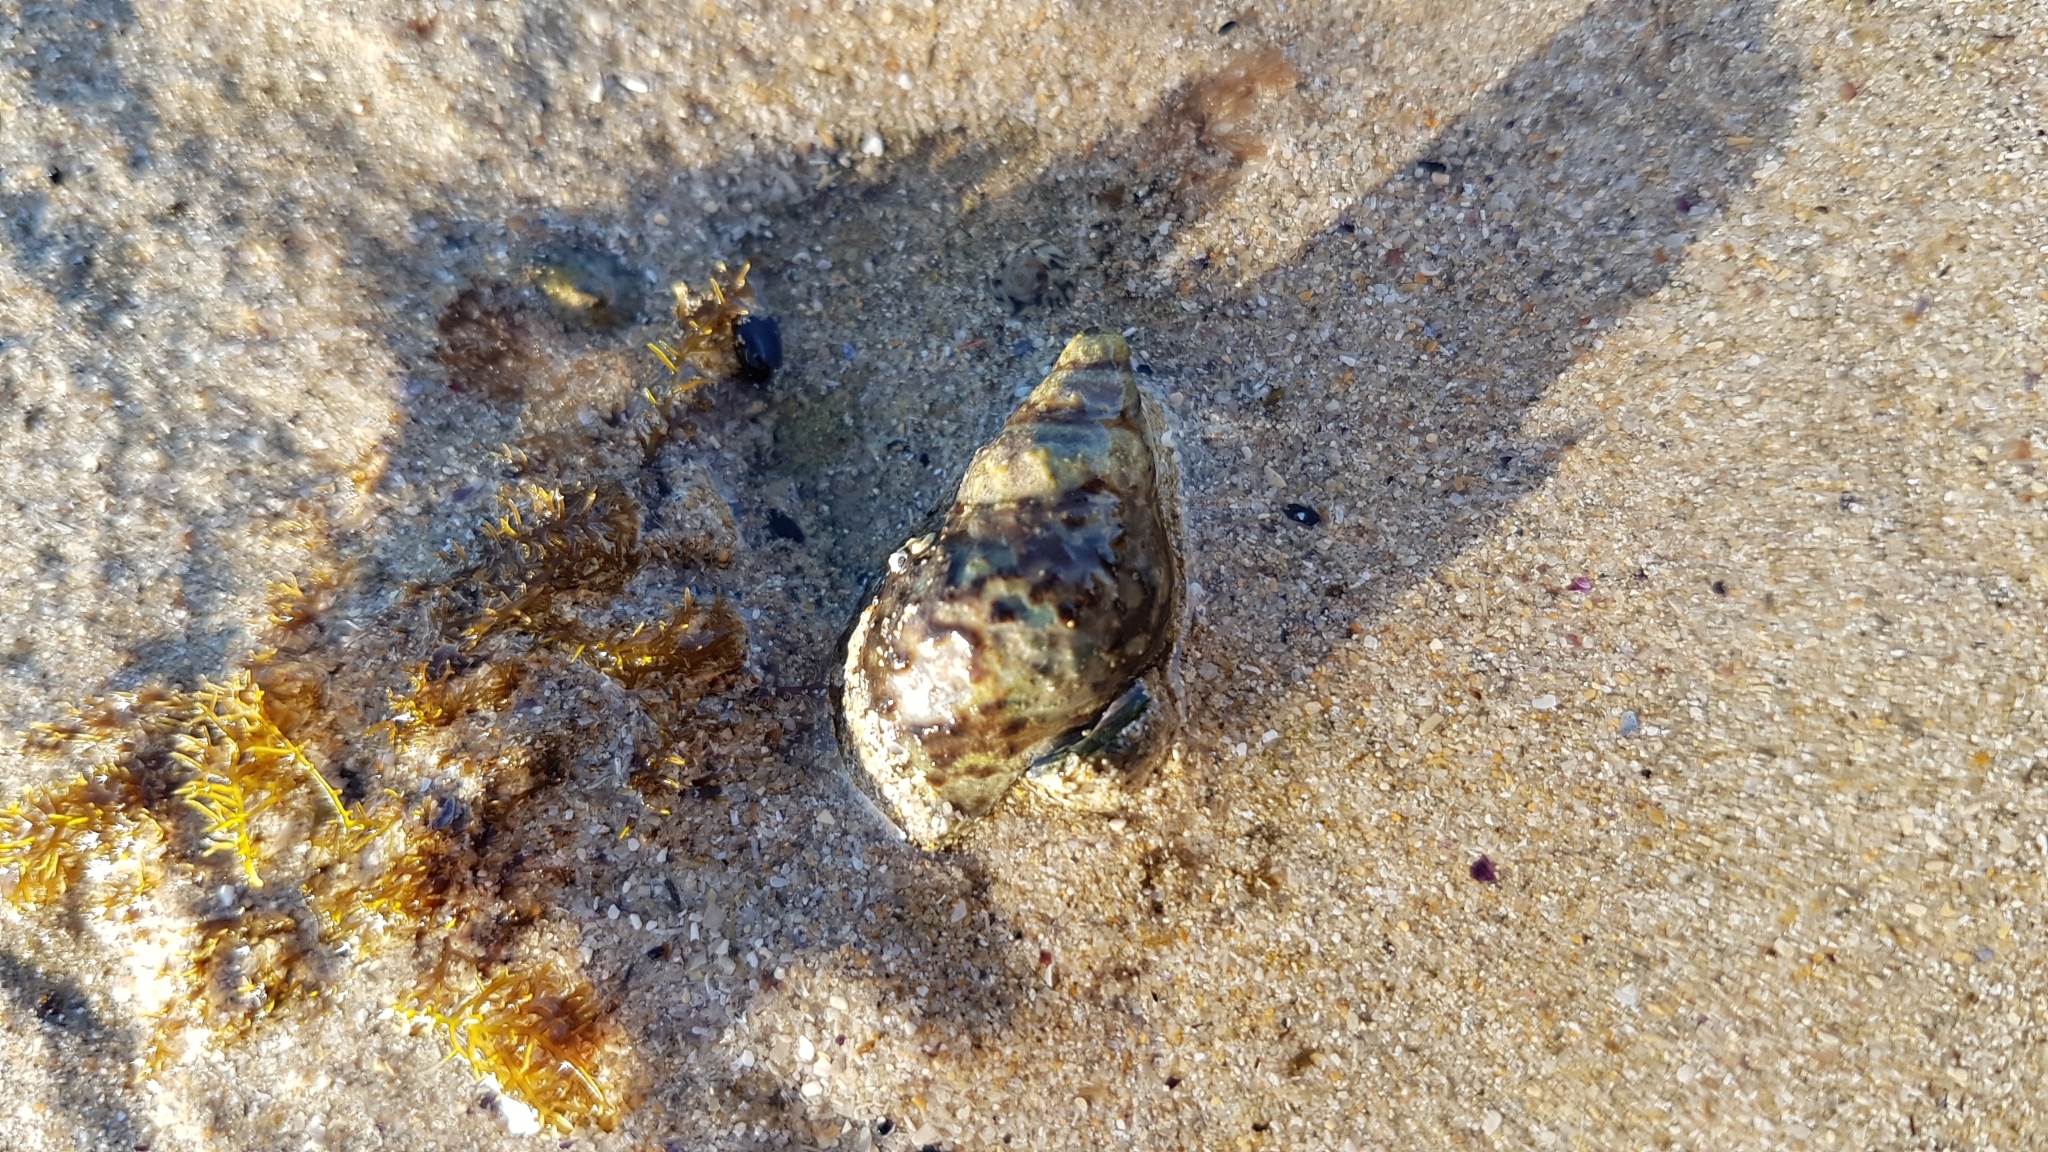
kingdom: Animalia
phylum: Mollusca
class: Gastropoda
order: Neogastropoda
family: Cominellidae
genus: Cominella
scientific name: Cominella lineolata
